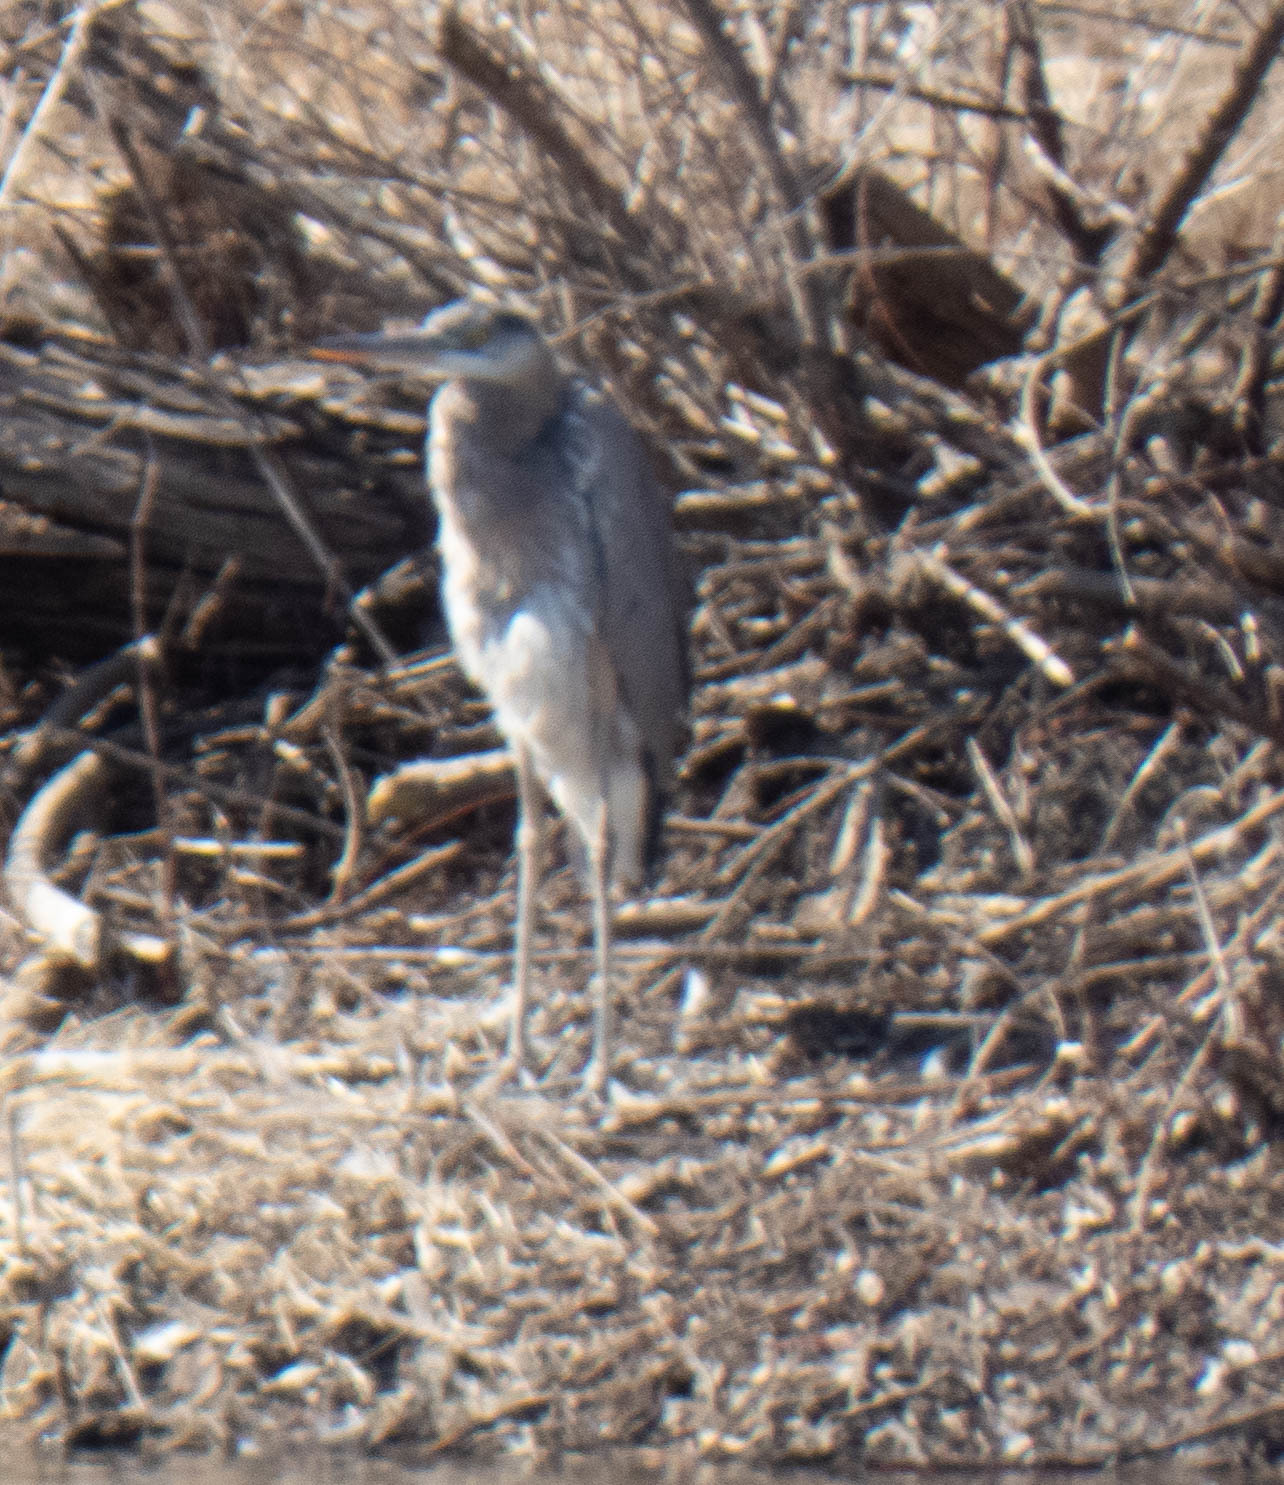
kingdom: Animalia
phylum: Chordata
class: Aves
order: Pelecaniformes
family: Ardeidae
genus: Ardea
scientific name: Ardea herodias
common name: Great blue heron
